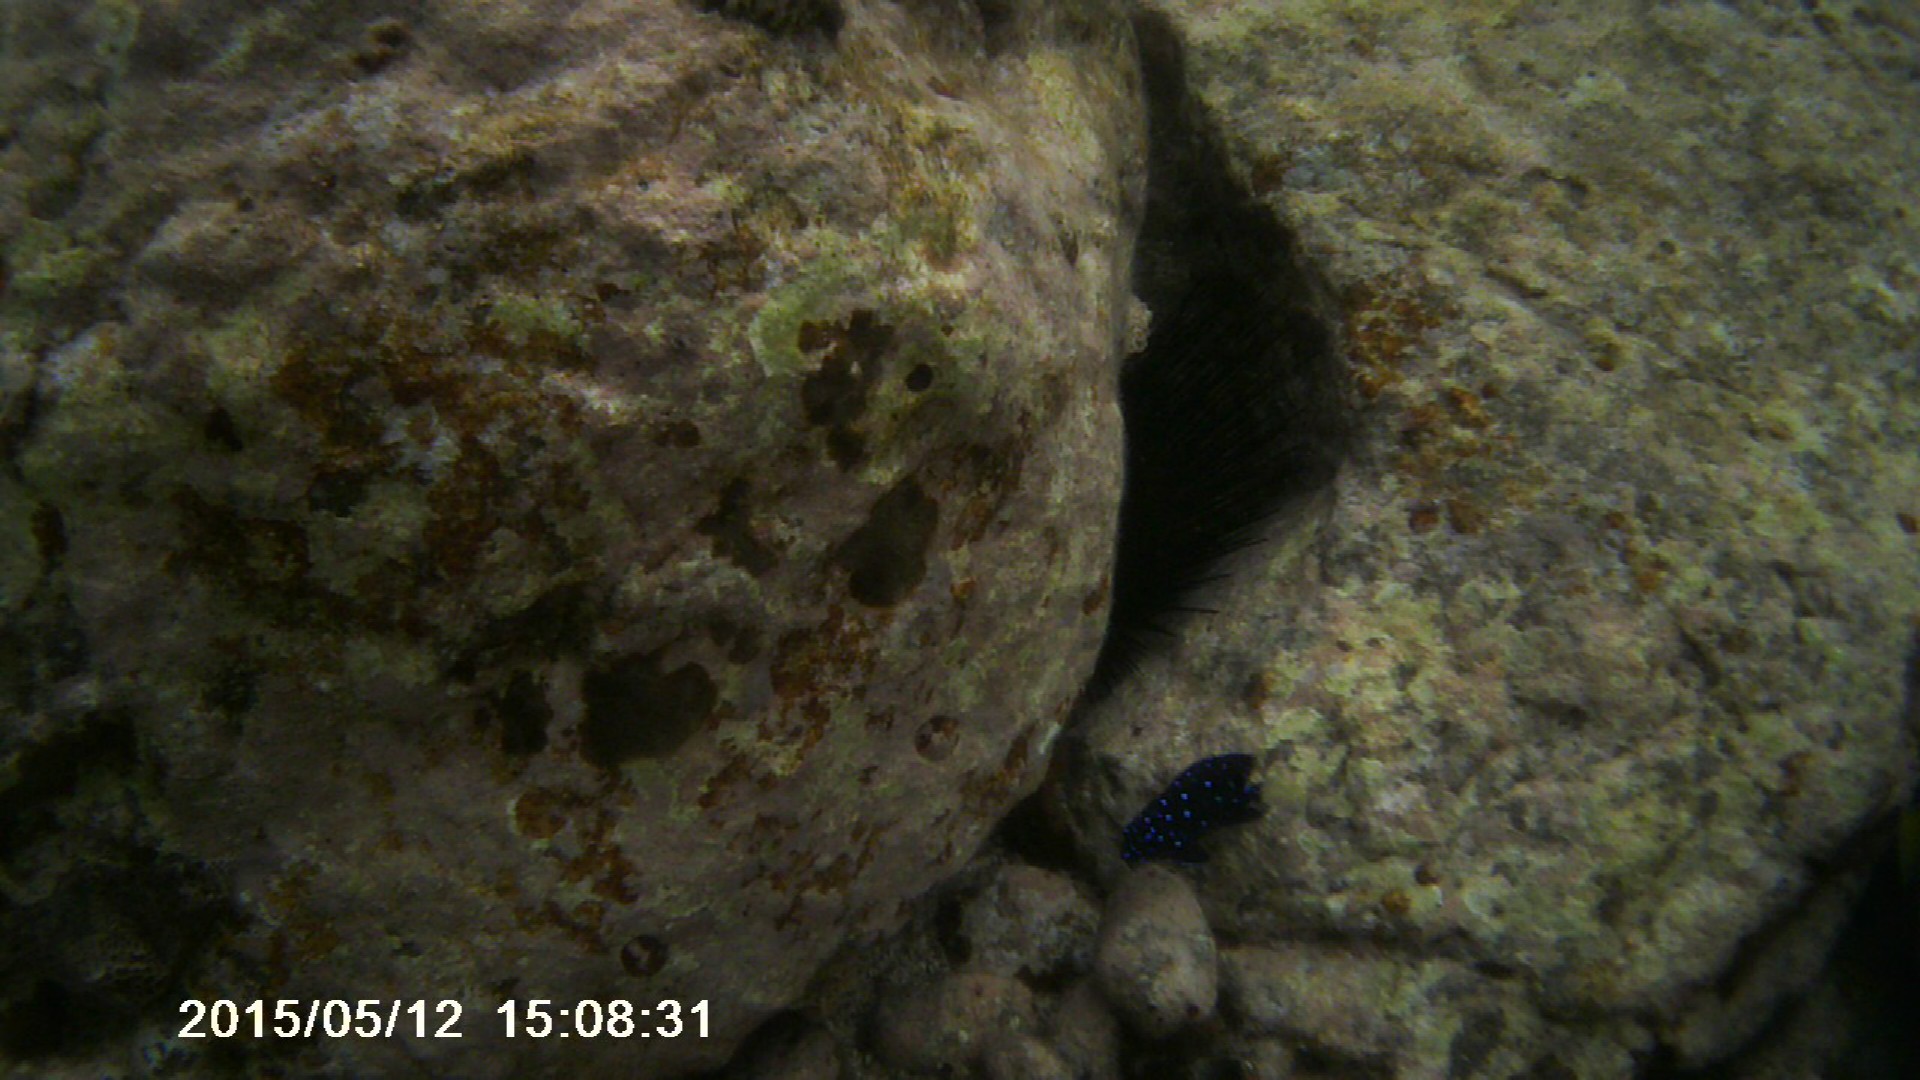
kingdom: Animalia
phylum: Chordata
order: Perciformes
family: Pomacentridae
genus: Microspathodon
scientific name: Microspathodon chrysurus
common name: Yellowtail damselfish
